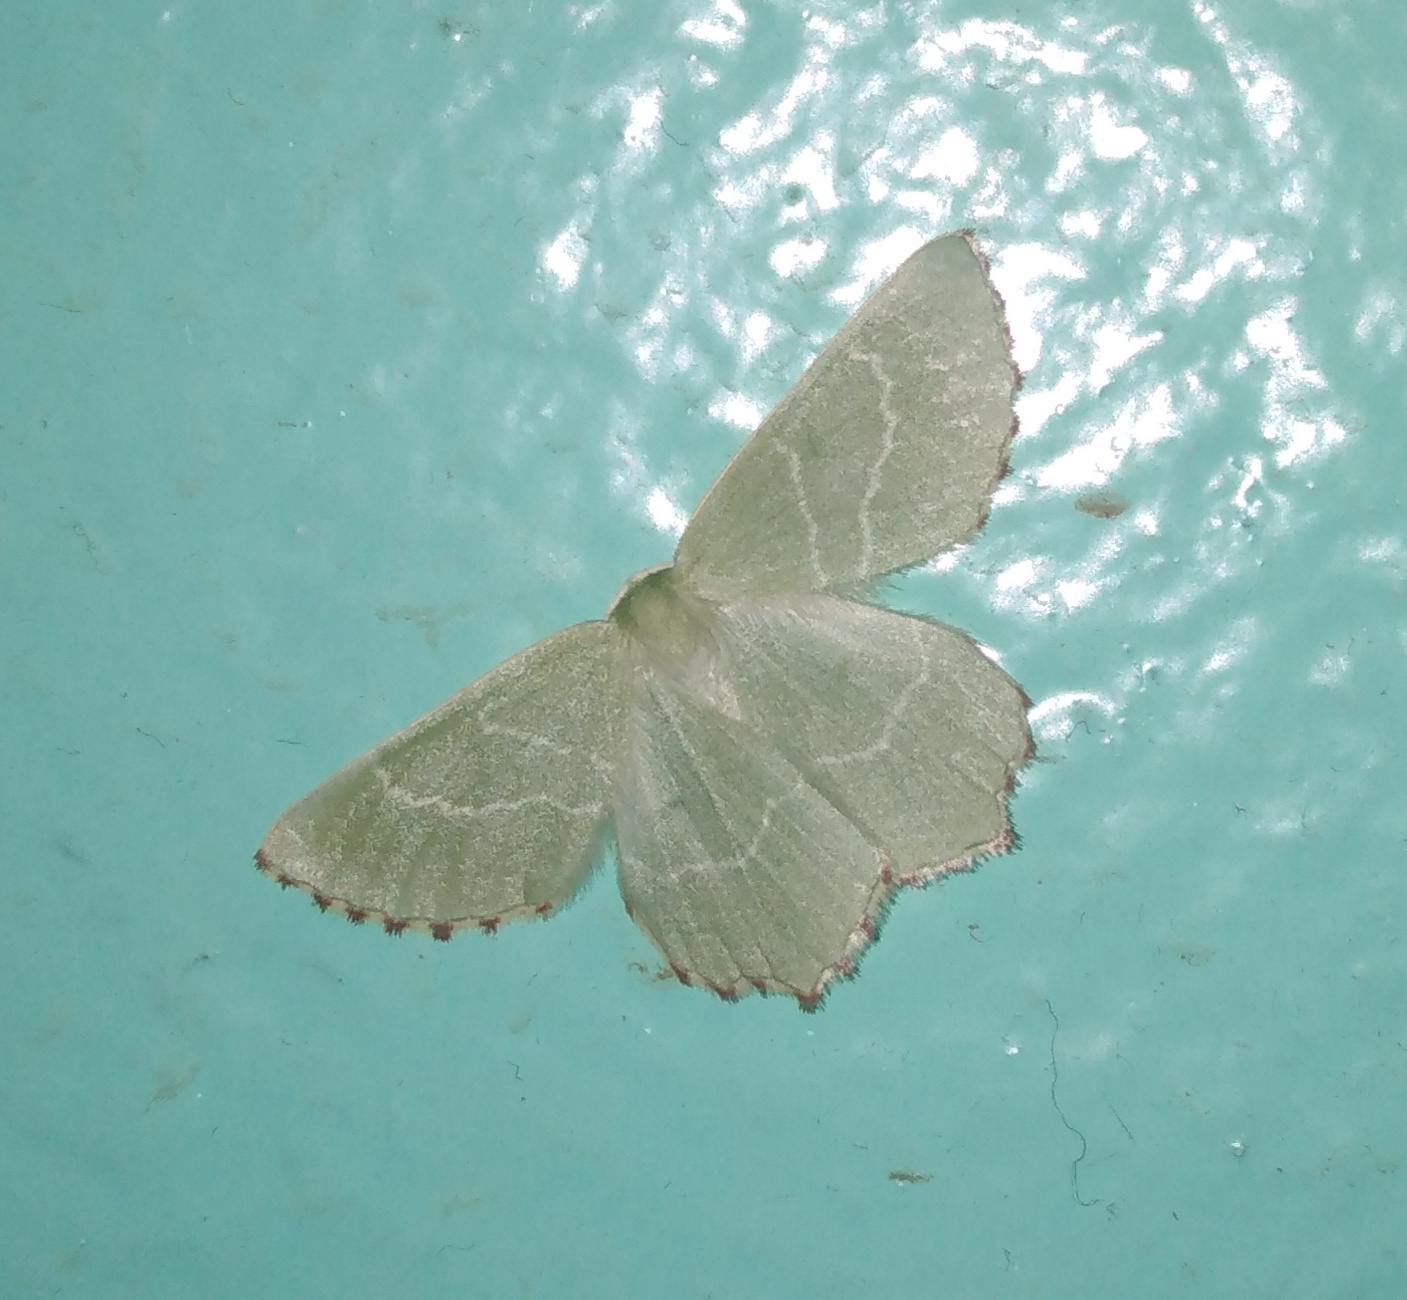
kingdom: Animalia
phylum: Arthropoda
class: Insecta
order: Lepidoptera
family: Geometridae
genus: Thalera
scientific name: Thalera fimbrialis
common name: Sussex emerald
